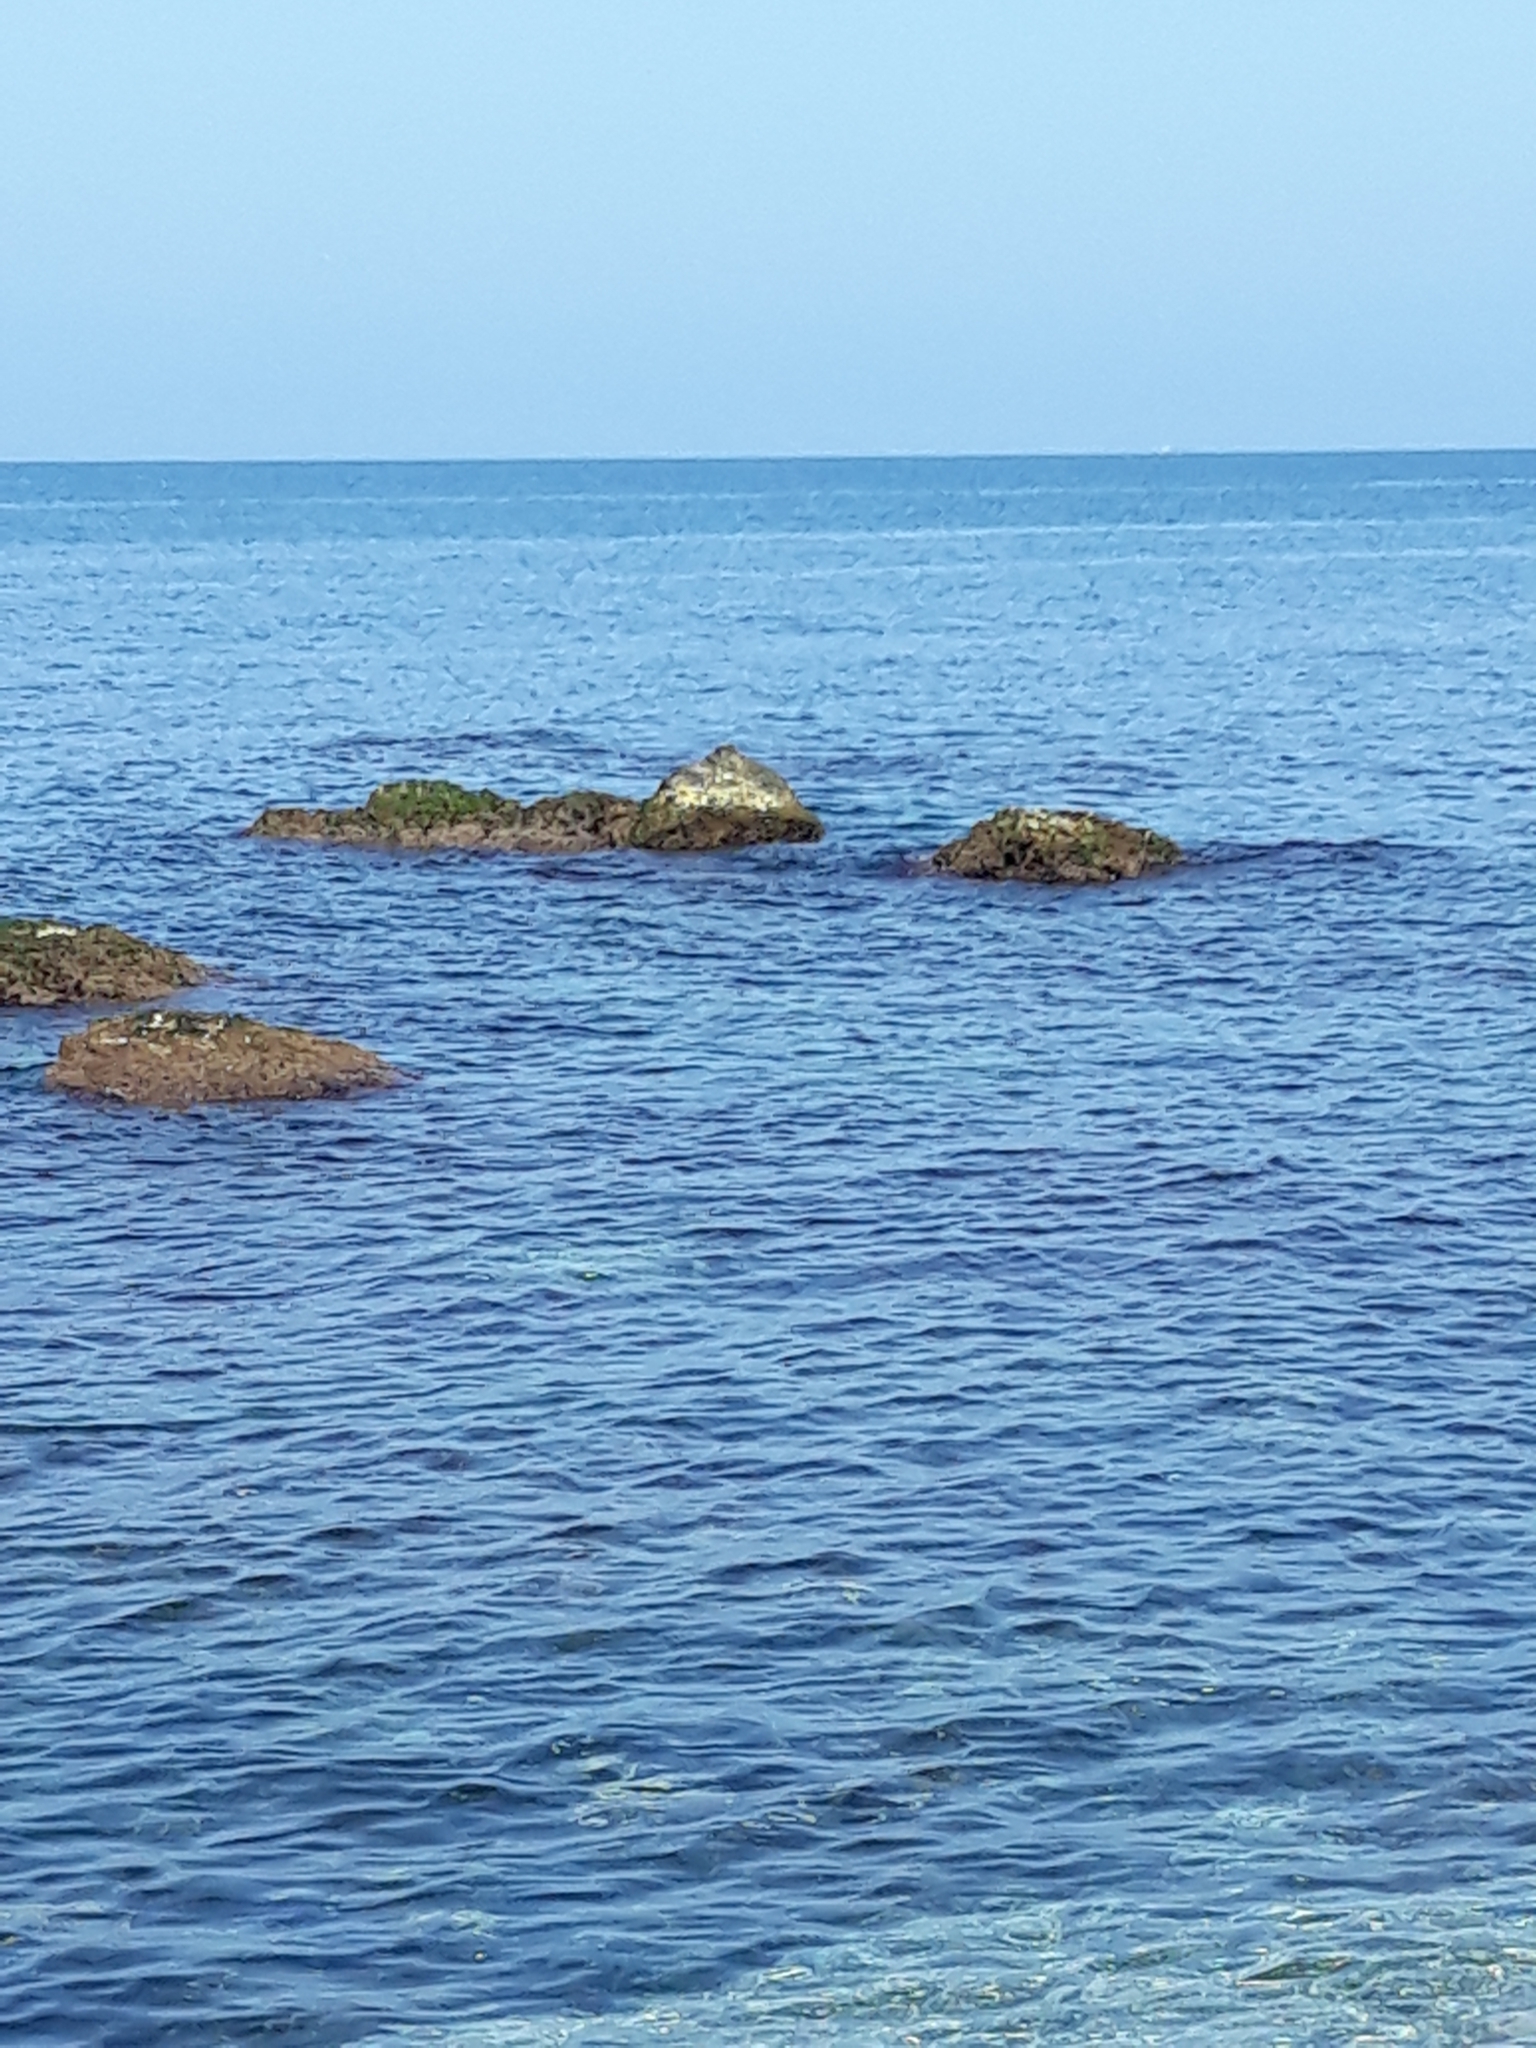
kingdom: Animalia
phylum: Chordata
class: Aves
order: Charadriiformes
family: Scolopacidae
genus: Arenaria
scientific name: Arenaria interpres
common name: Ruddy turnstone
